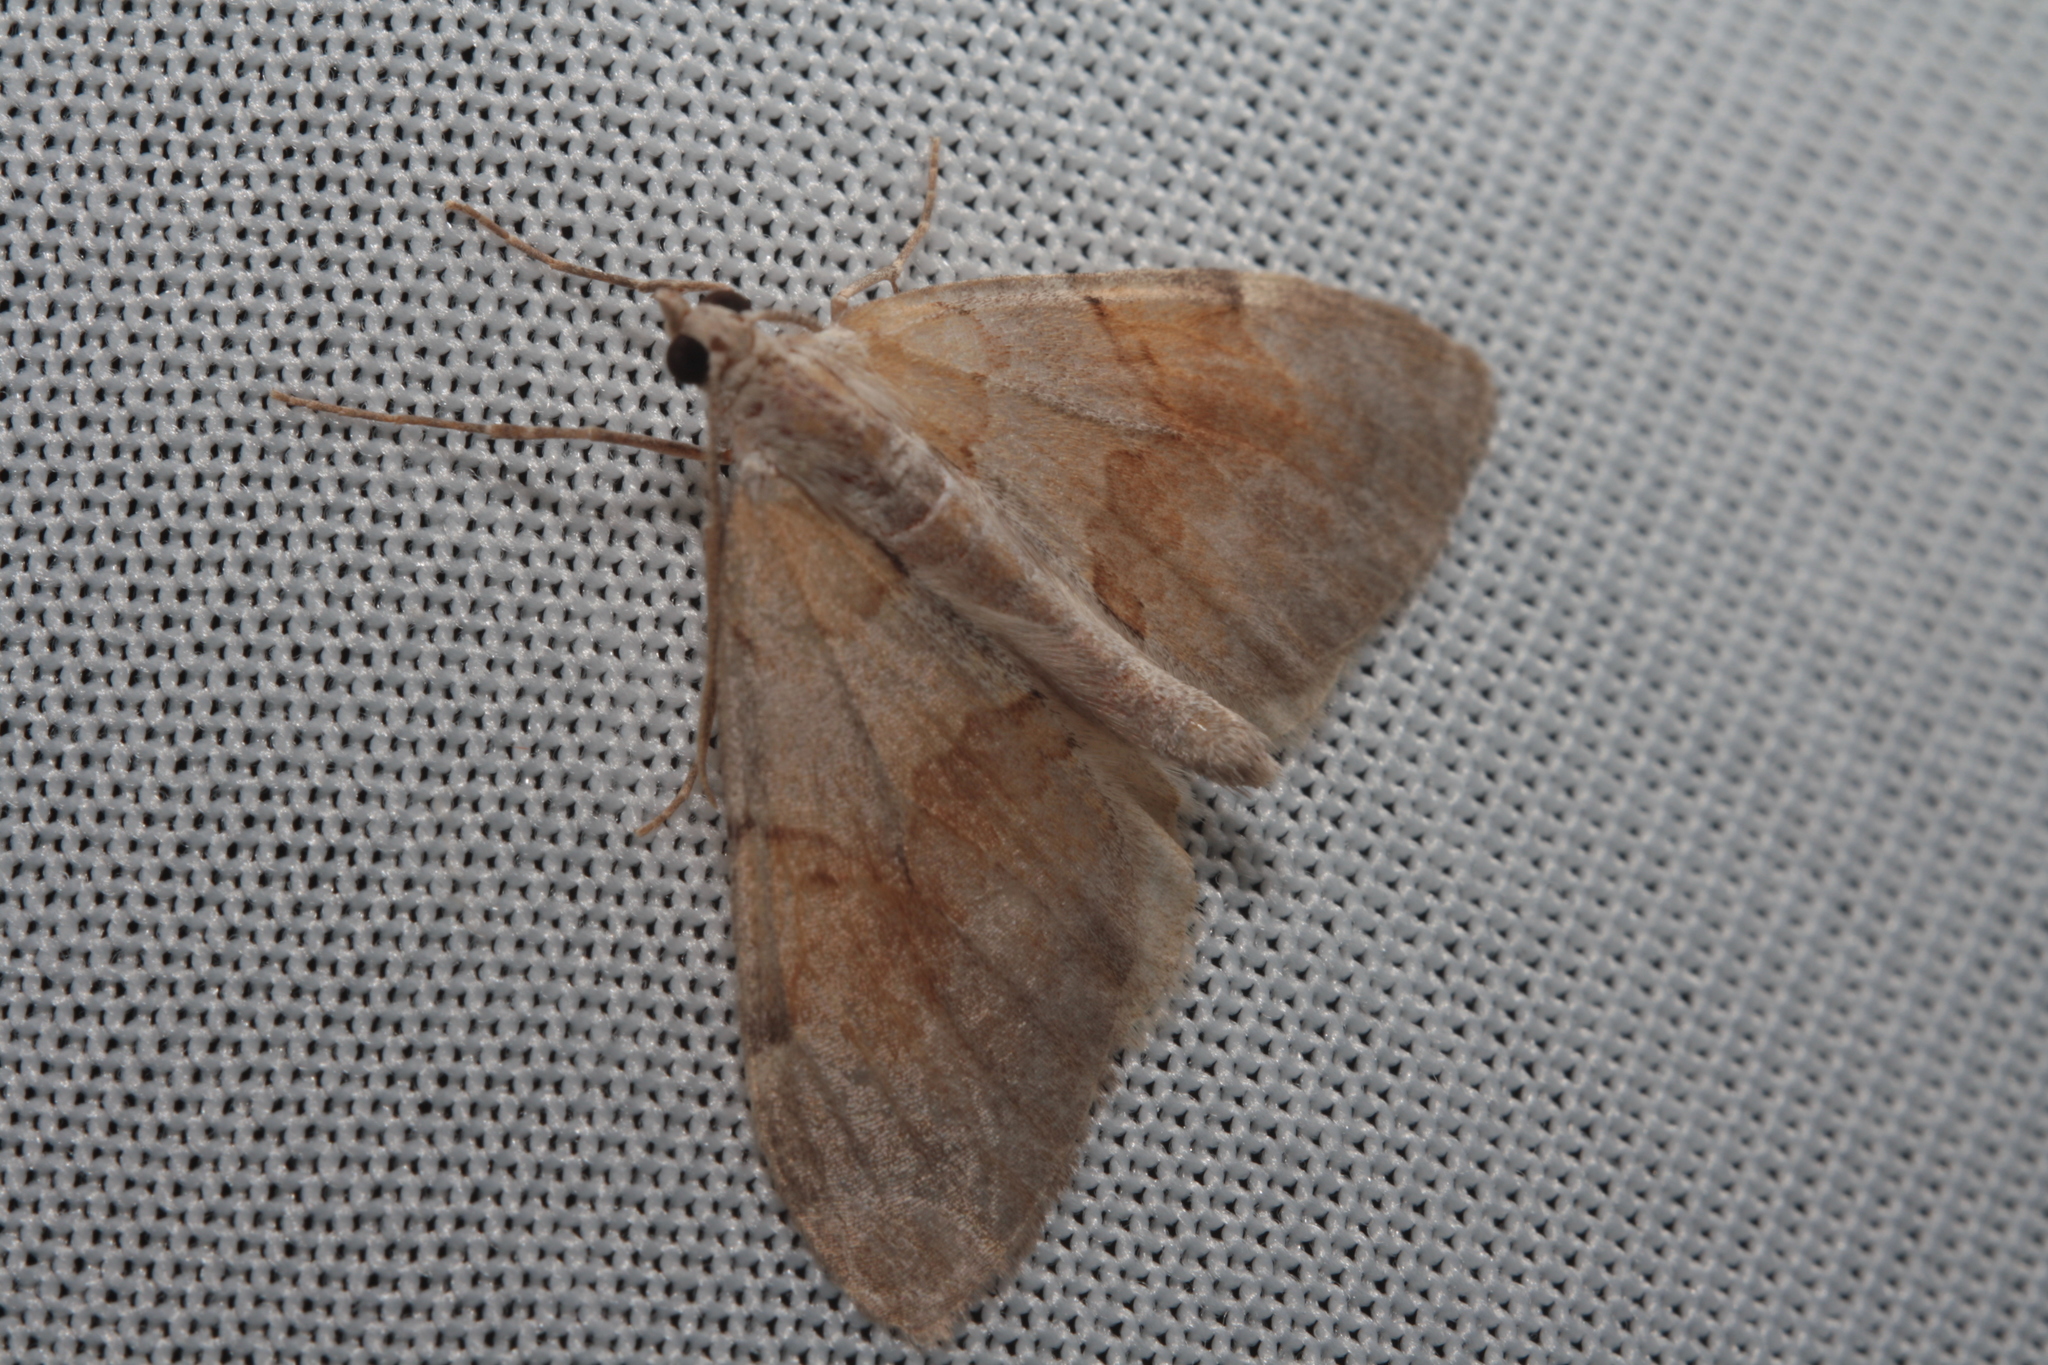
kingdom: Animalia
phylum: Arthropoda
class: Insecta
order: Lepidoptera
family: Geometridae
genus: Pennithera
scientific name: Pennithera firmata
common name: Pine carpet
